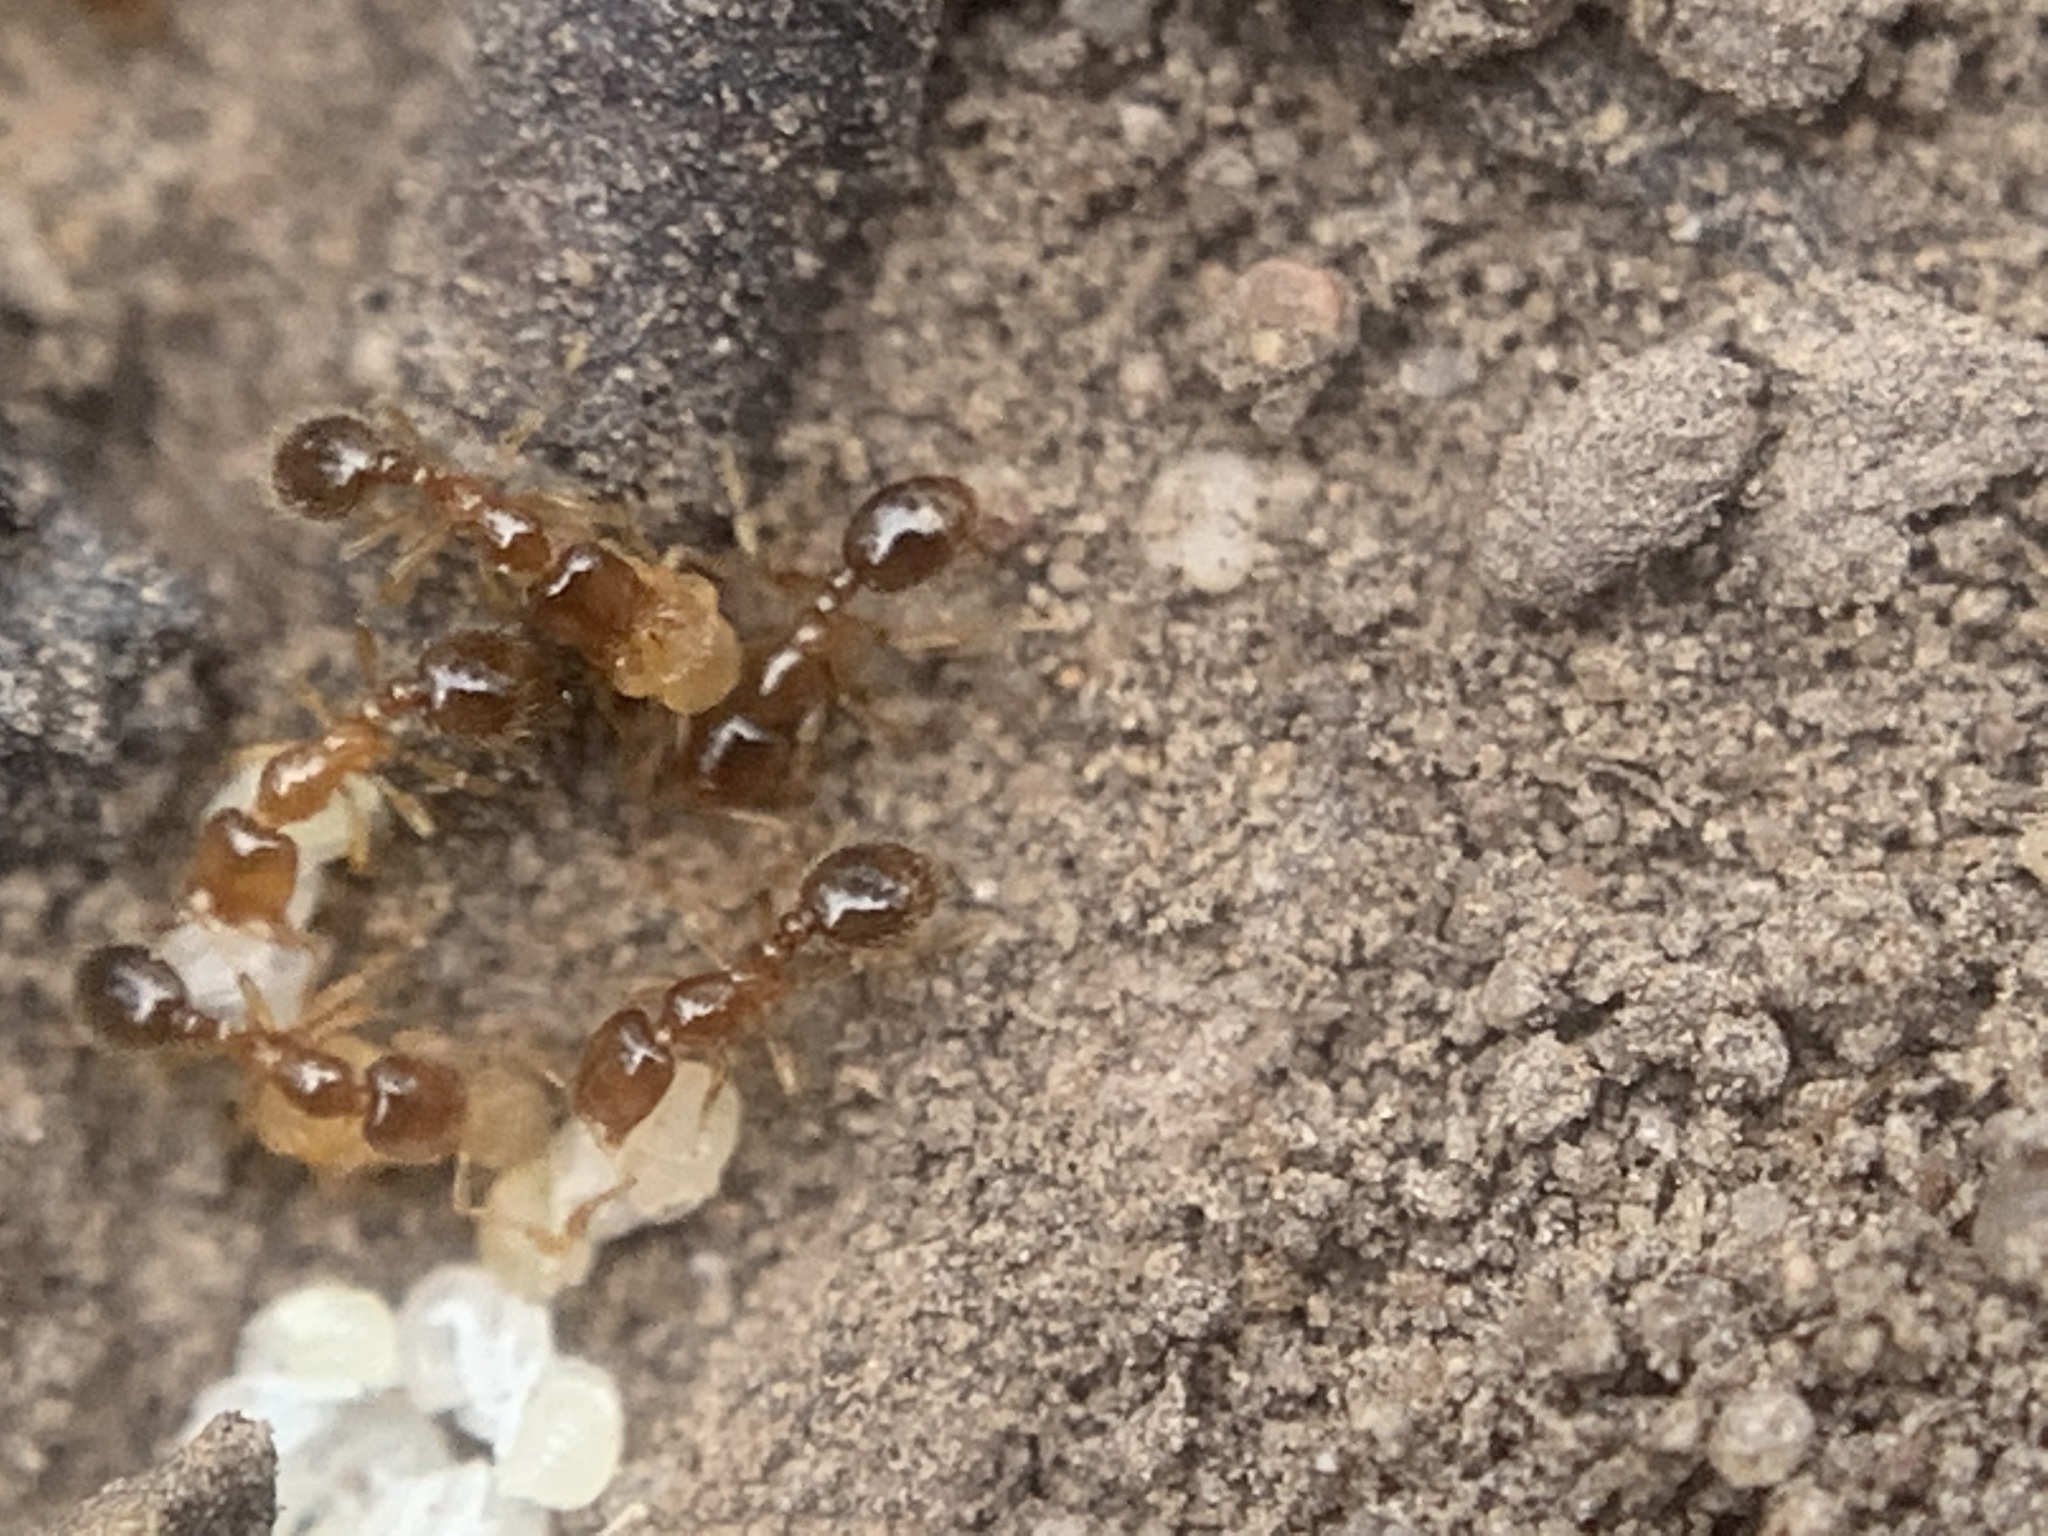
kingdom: Animalia
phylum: Arthropoda
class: Insecta
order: Hymenoptera
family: Formicidae
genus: Solenopsis
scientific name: Solenopsis
